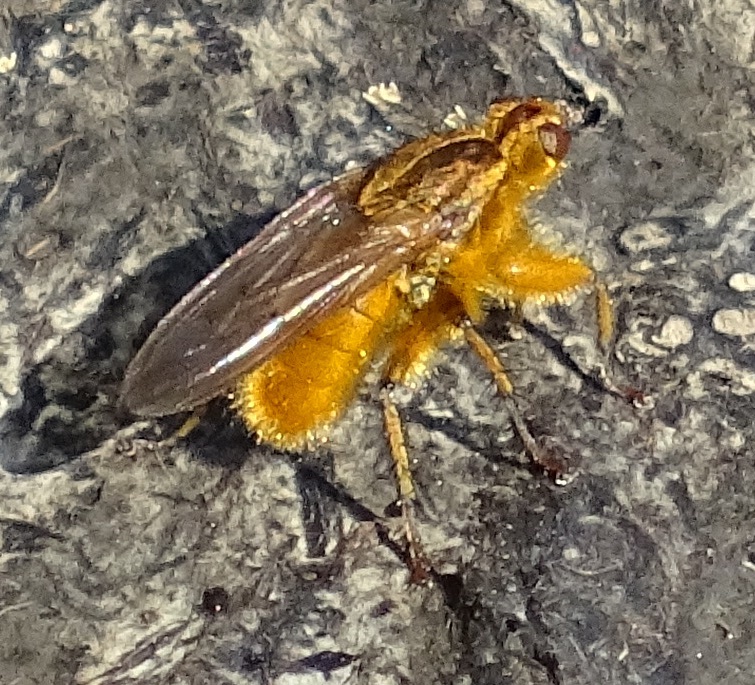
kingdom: Animalia
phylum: Arthropoda
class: Insecta
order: Diptera
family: Scathophagidae
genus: Scathophaga
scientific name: Scathophaga stercoraria
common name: Yellow dung fly
